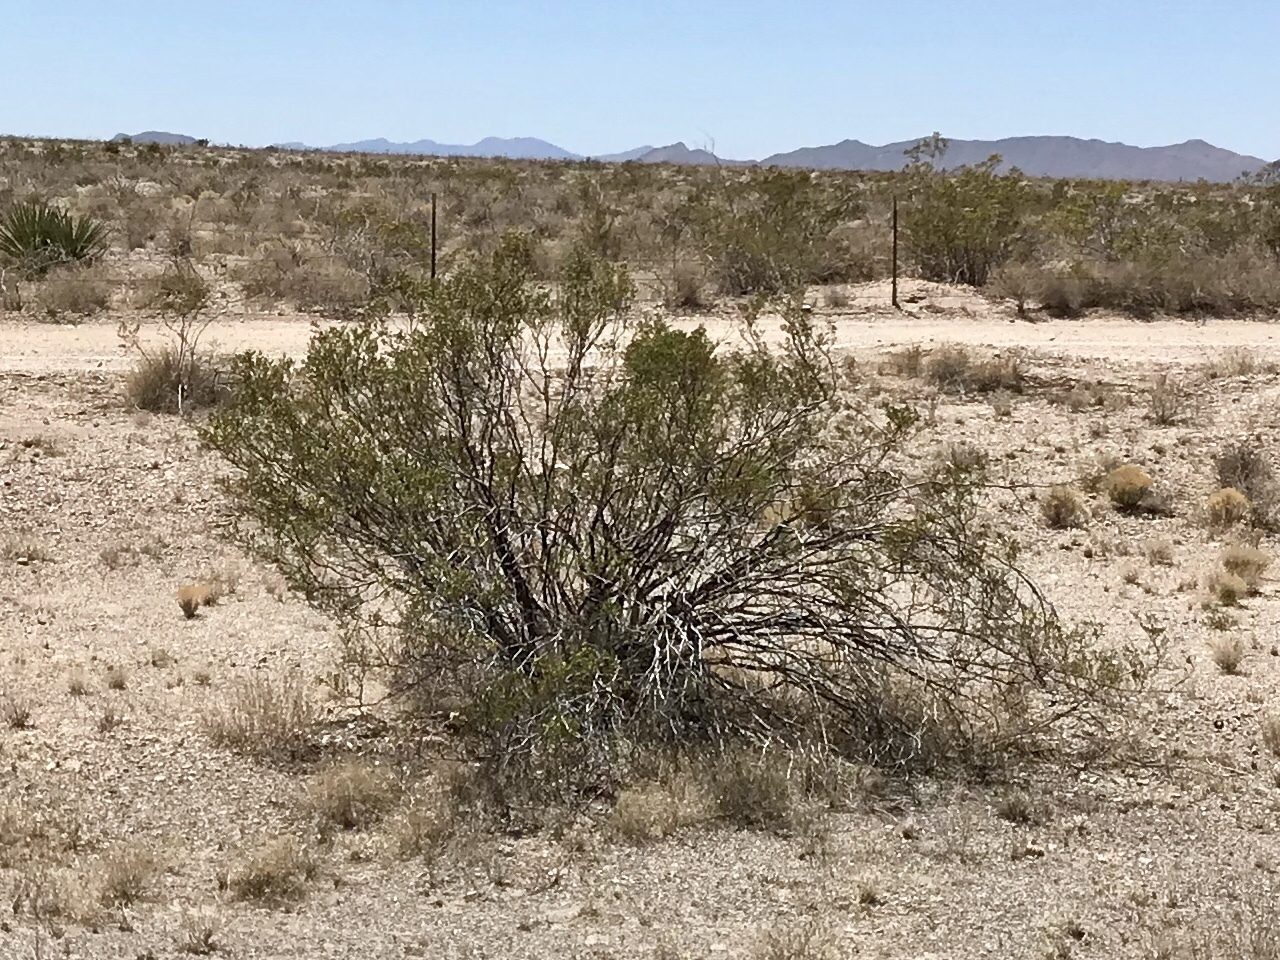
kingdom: Plantae
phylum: Tracheophyta
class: Magnoliopsida
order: Zygophyllales
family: Zygophyllaceae
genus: Larrea
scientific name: Larrea tridentata
